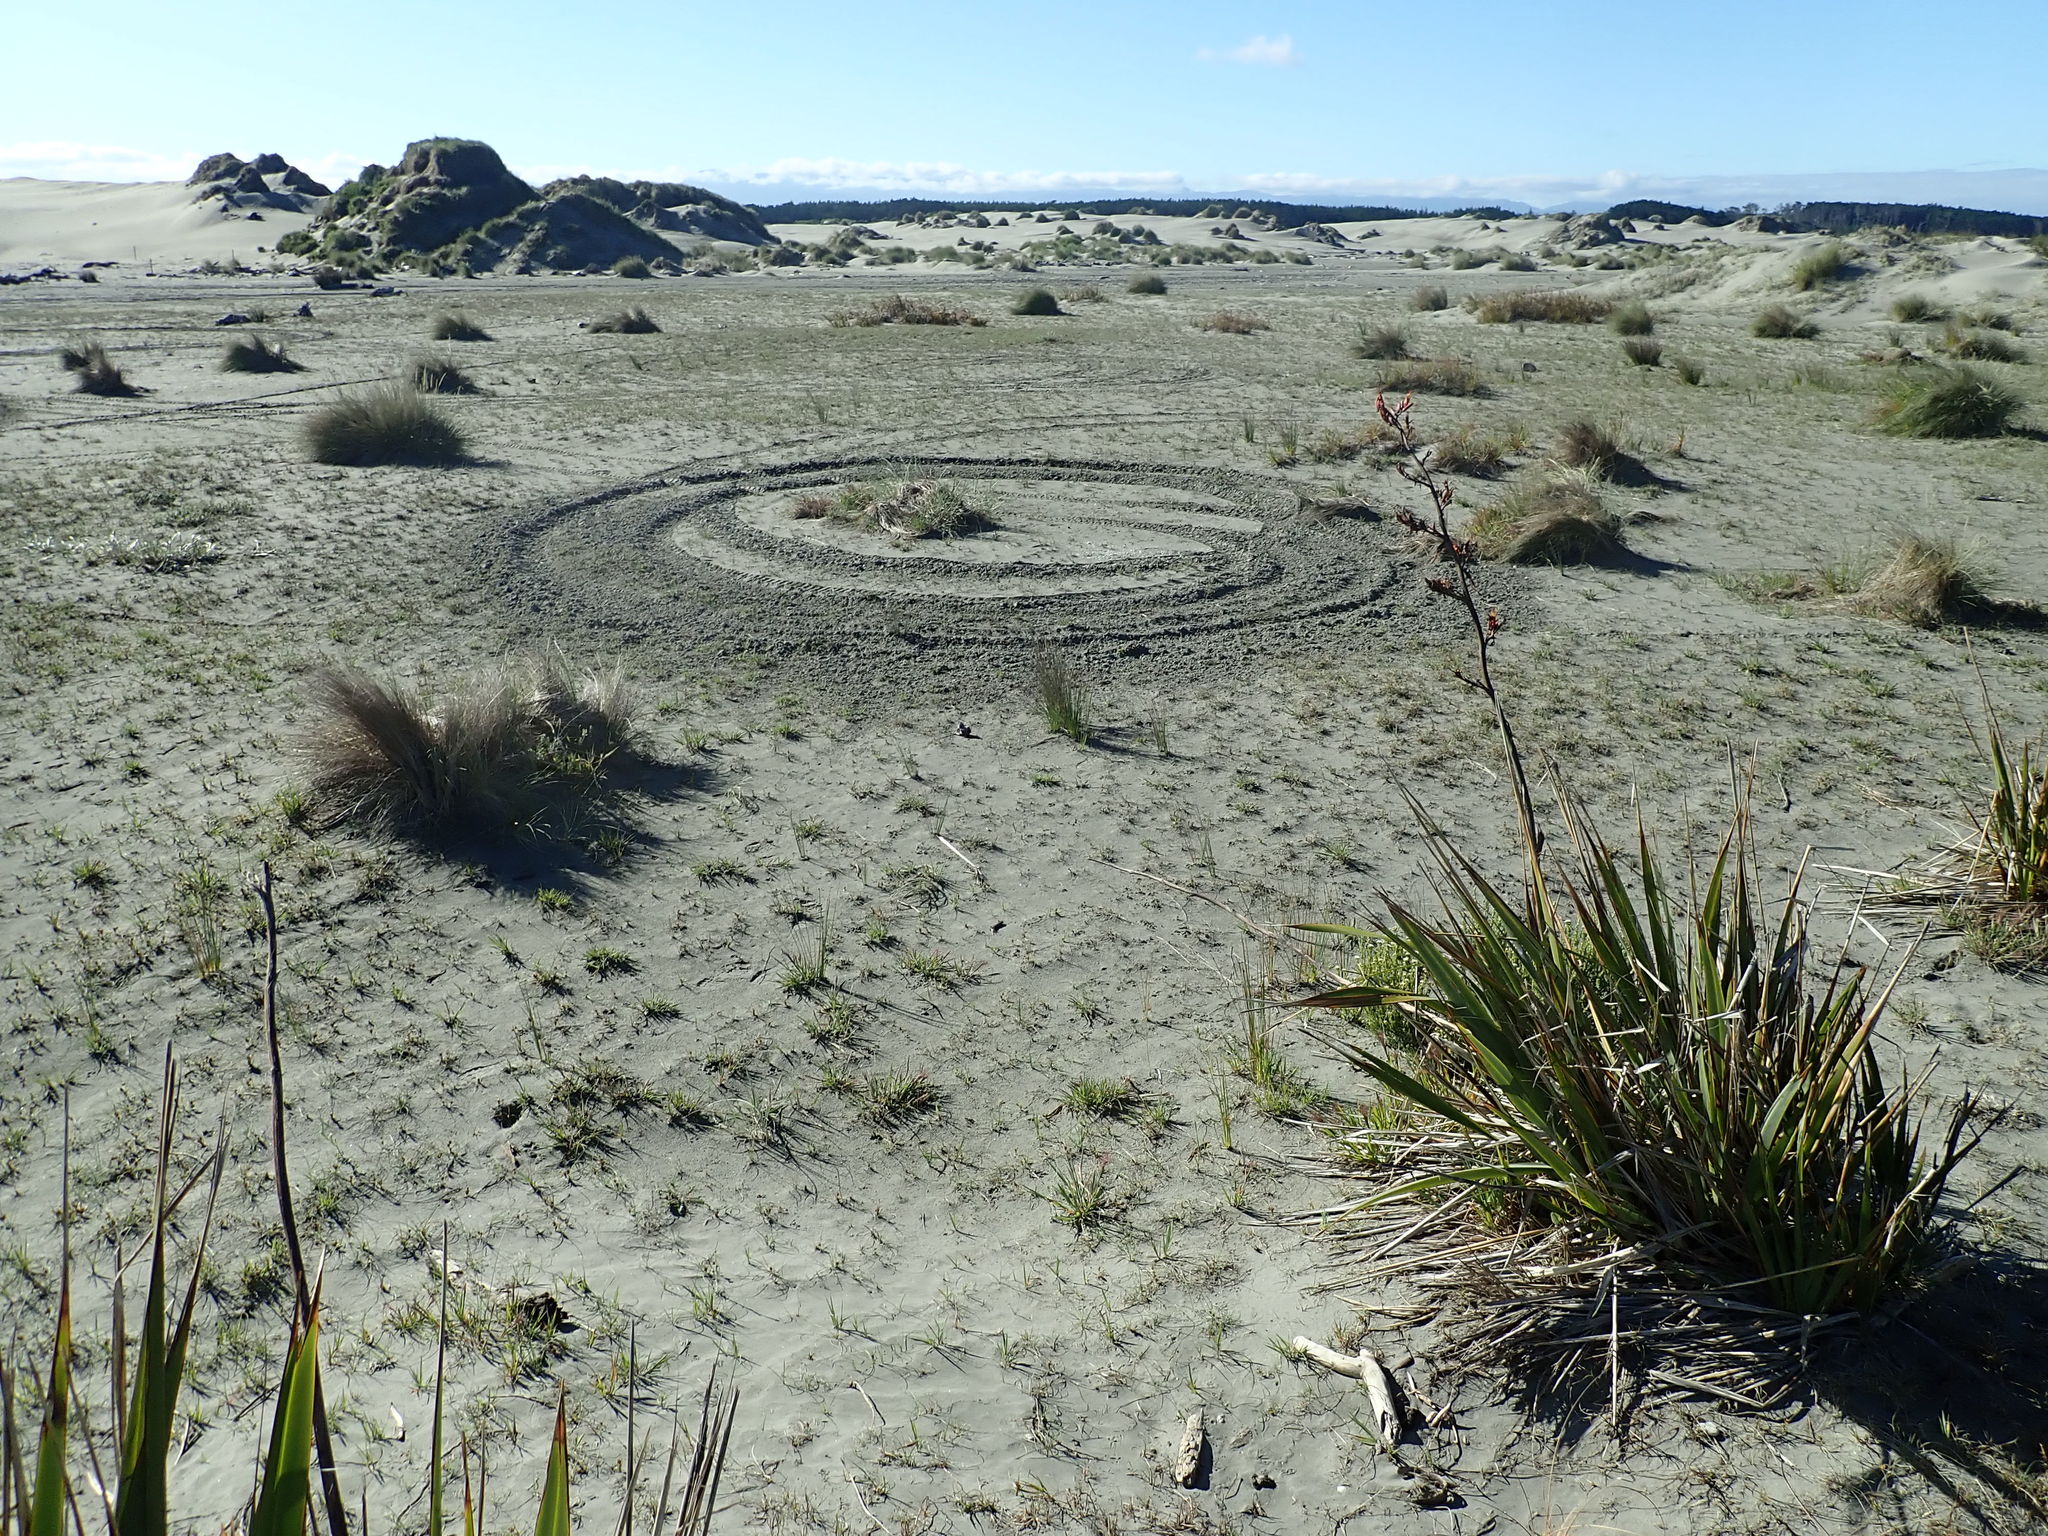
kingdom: Plantae
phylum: Tracheophyta
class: Liliopsida
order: Poales
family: Poaceae
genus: Calamagrostis
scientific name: Calamagrostis arenaria
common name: European beachgrass
